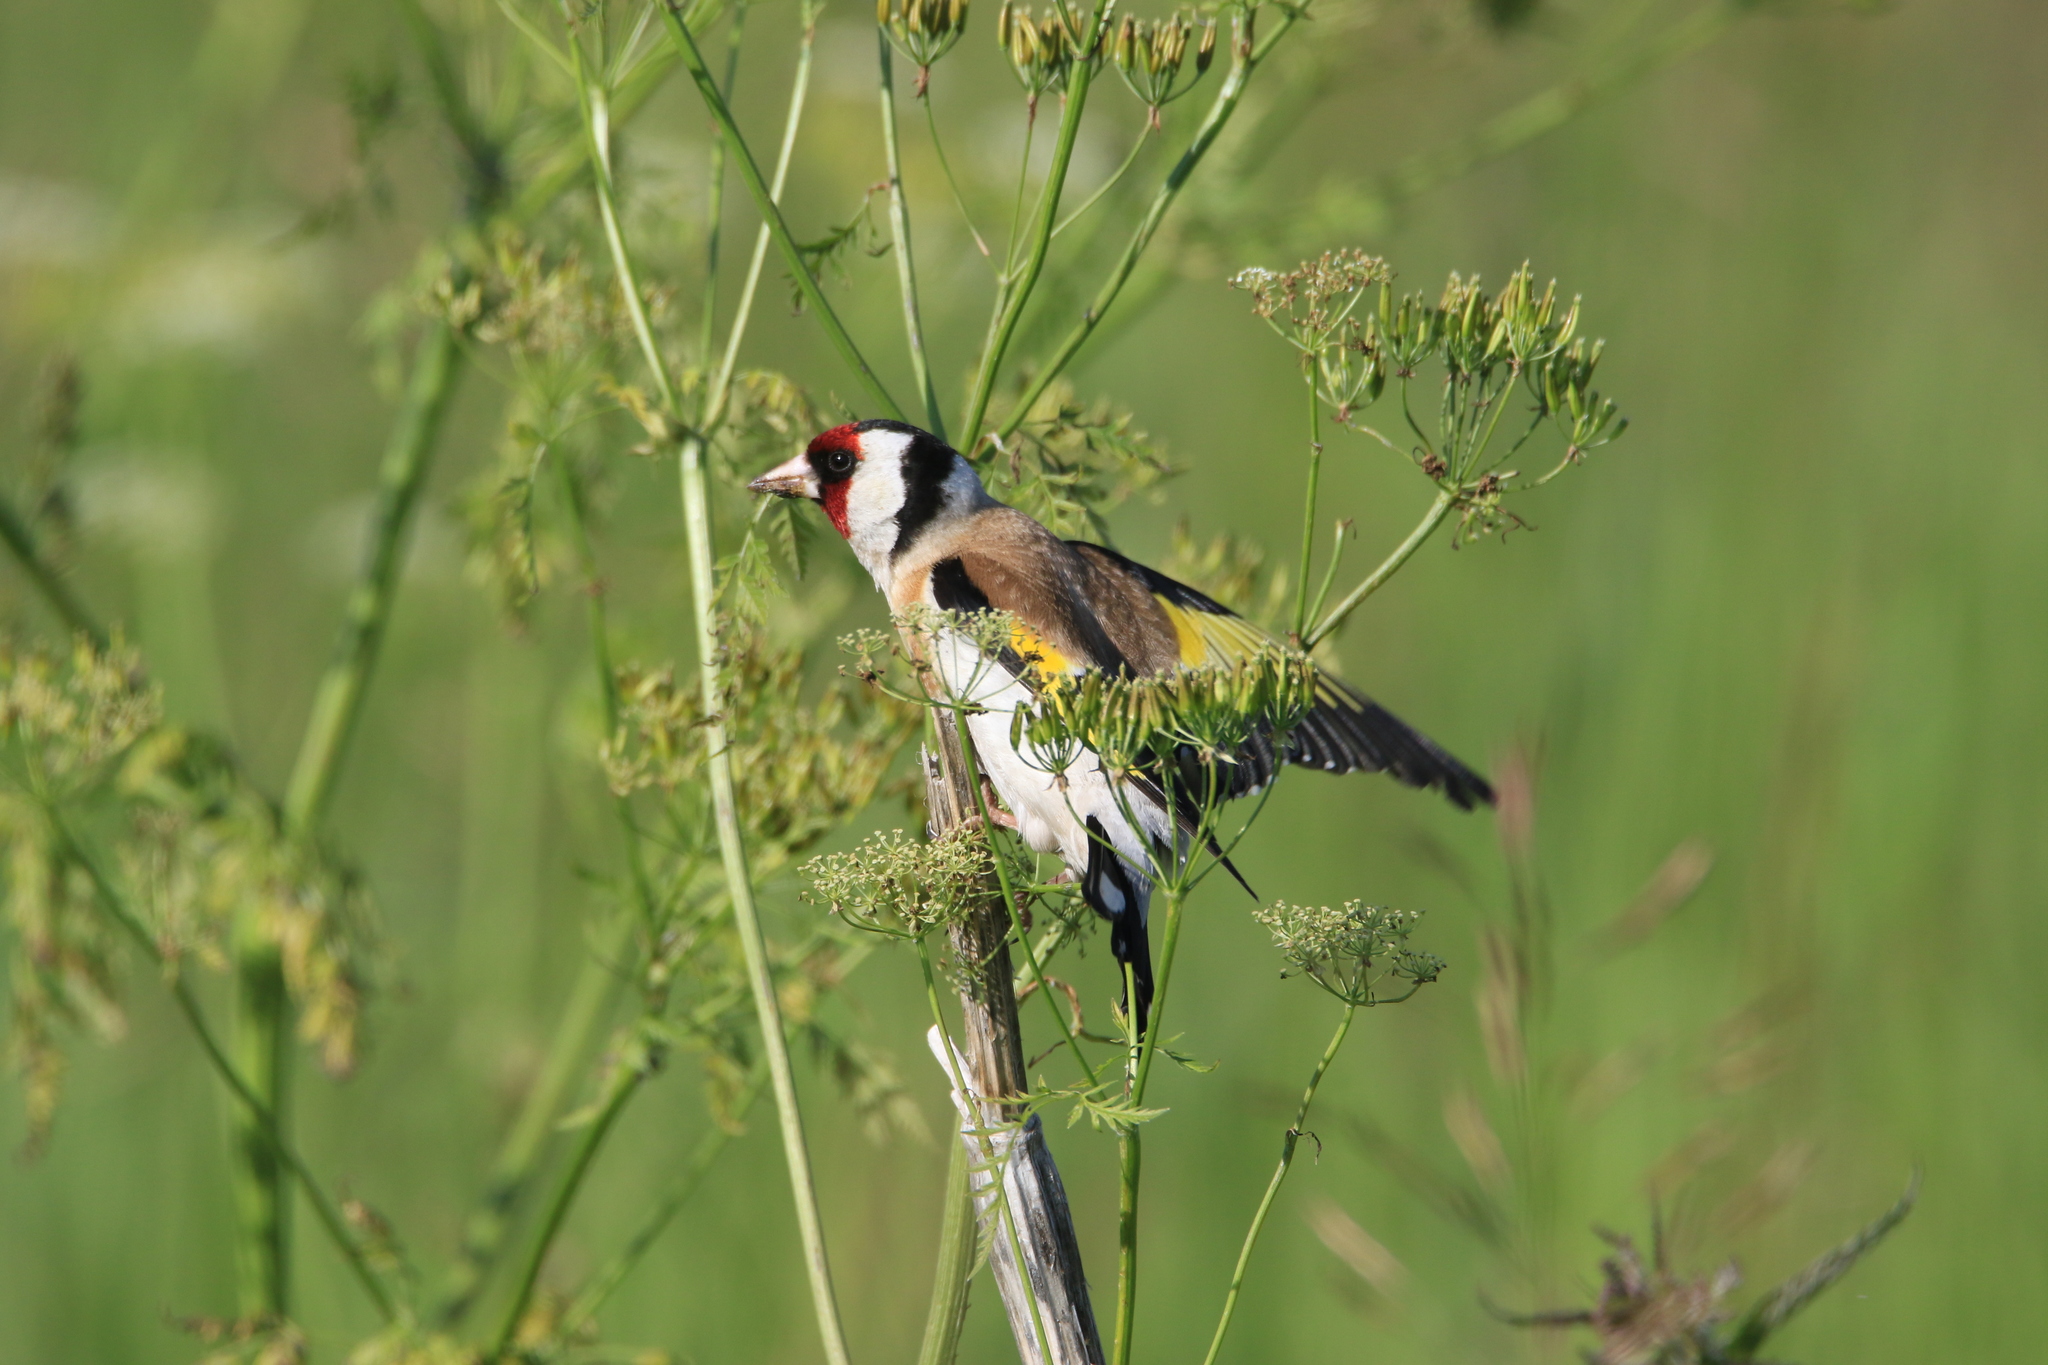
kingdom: Animalia
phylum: Chordata
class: Aves
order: Passeriformes
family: Fringillidae
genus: Carduelis
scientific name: Carduelis carduelis
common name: European goldfinch
